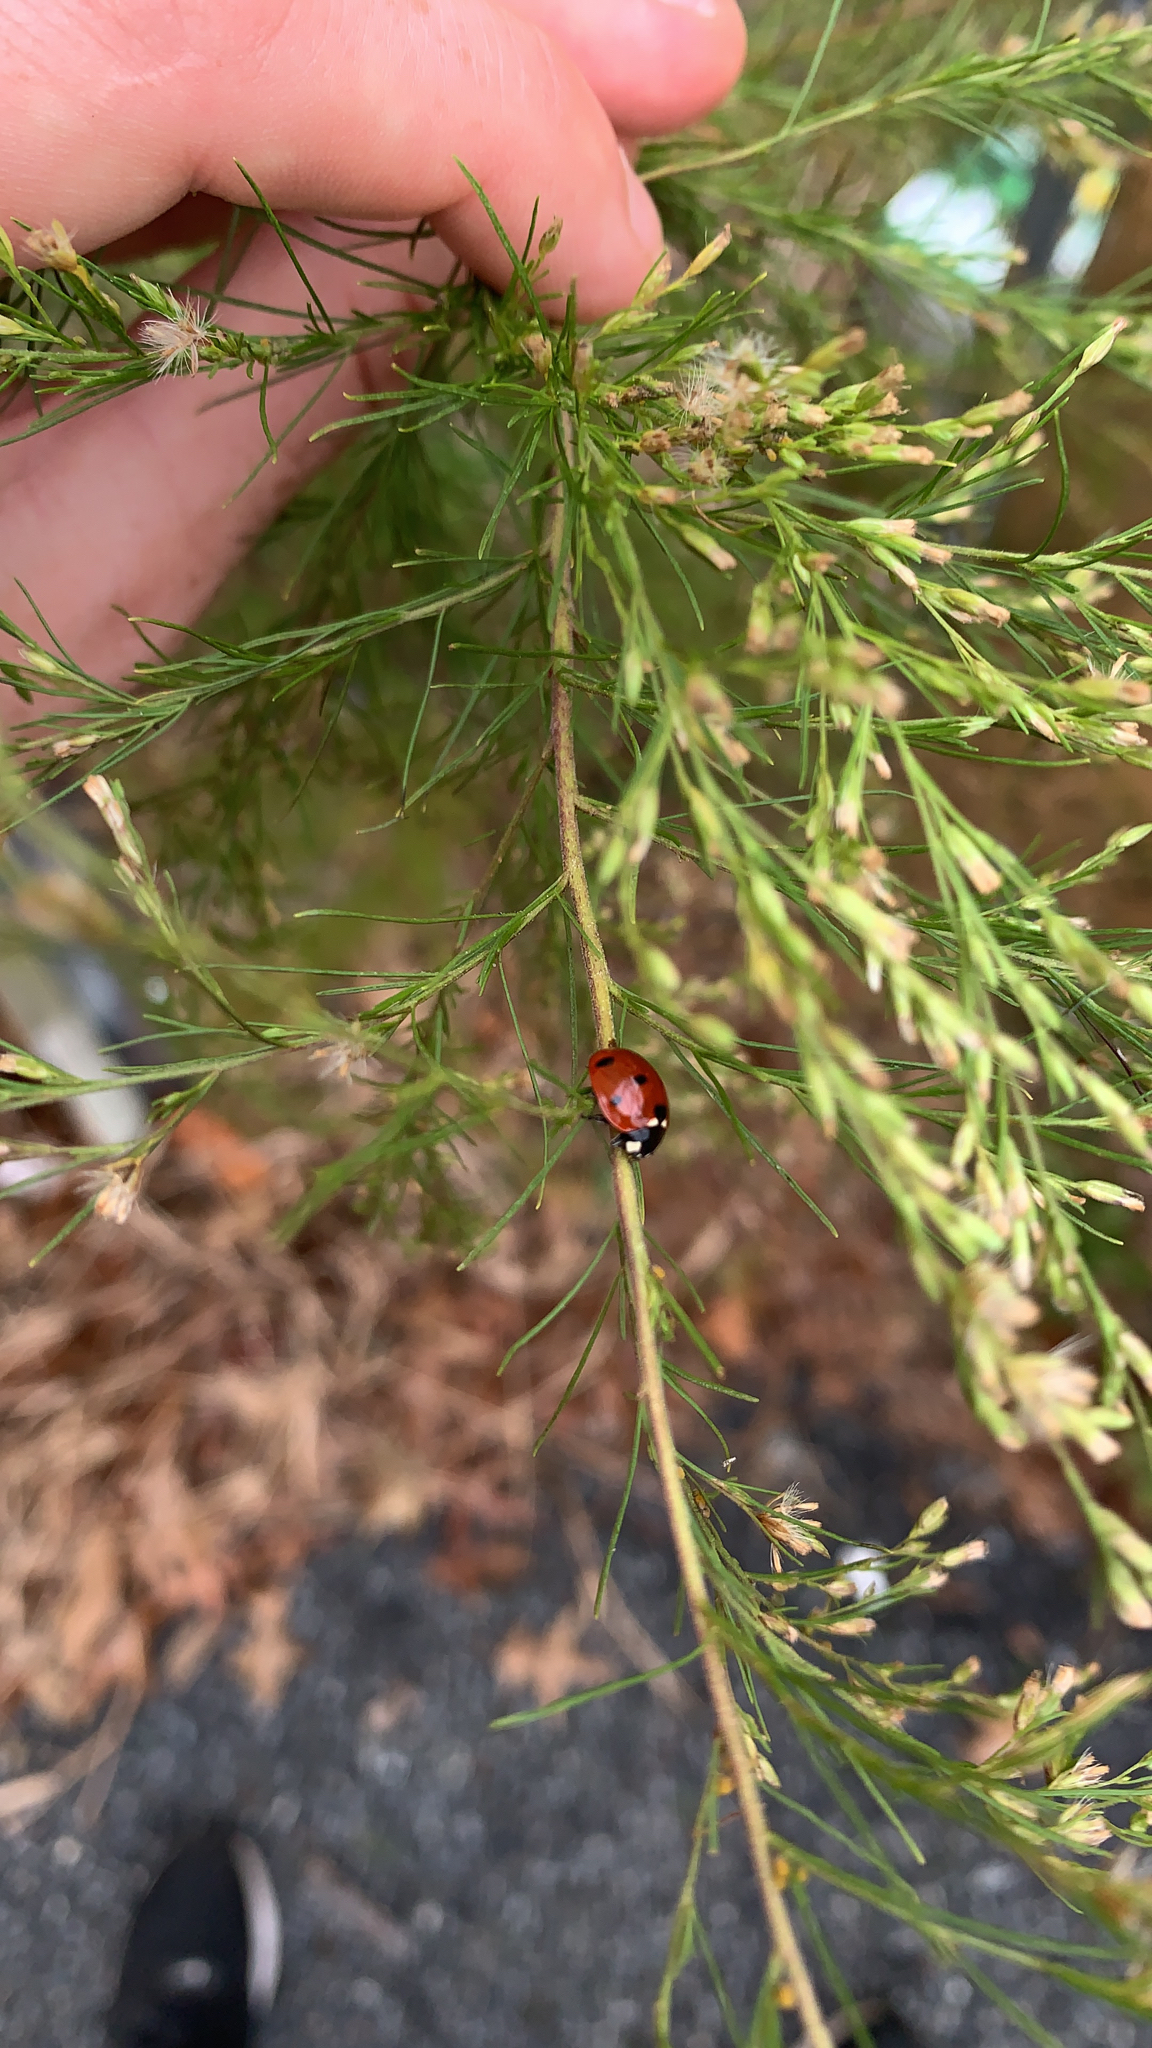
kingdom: Animalia
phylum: Arthropoda
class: Insecta
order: Coleoptera
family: Coccinellidae
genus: Coccinella
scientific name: Coccinella septempunctata
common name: Sevenspotted lady beetle
